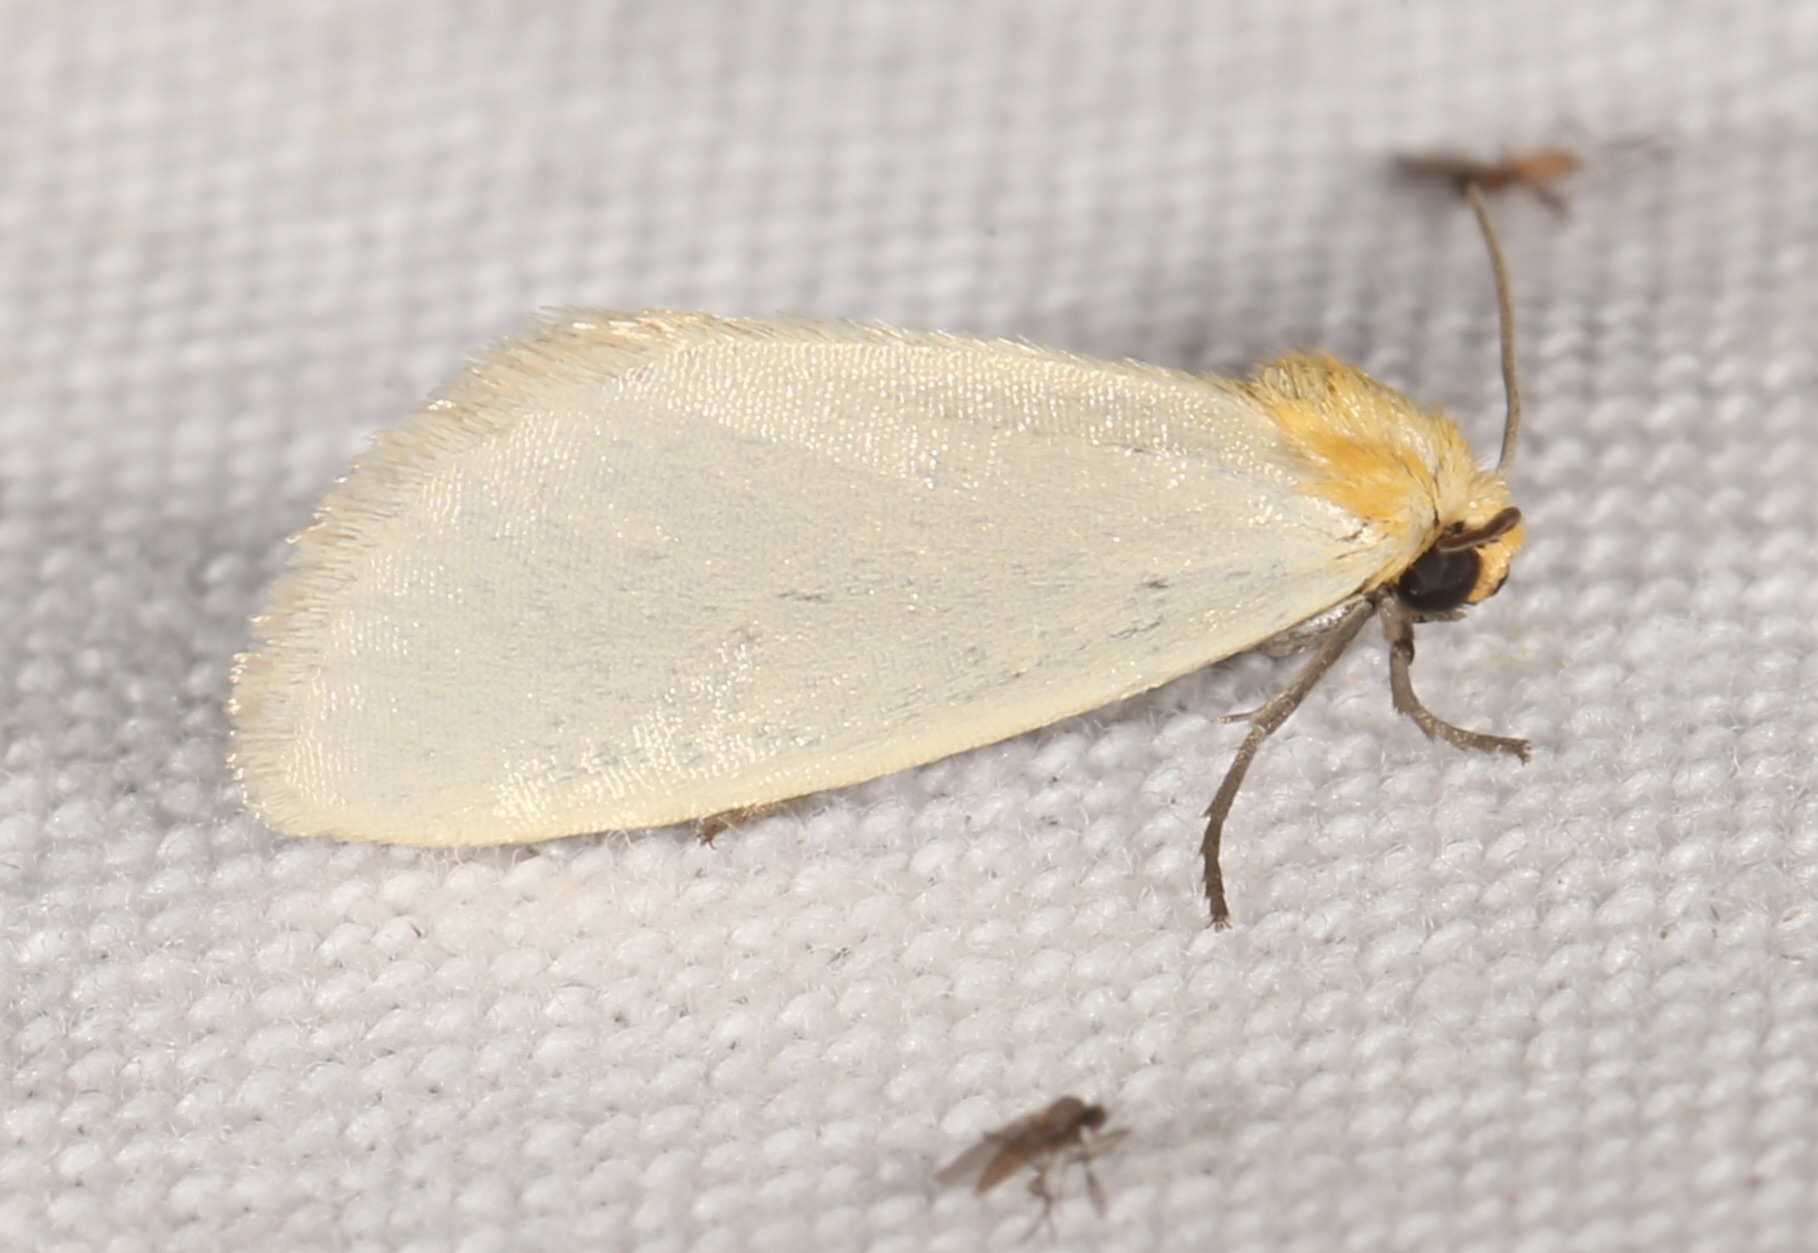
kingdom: Animalia
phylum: Arthropoda
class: Insecta
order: Lepidoptera
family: Noctuidae
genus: Chrysoecia
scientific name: Chrysoecia thoracica
